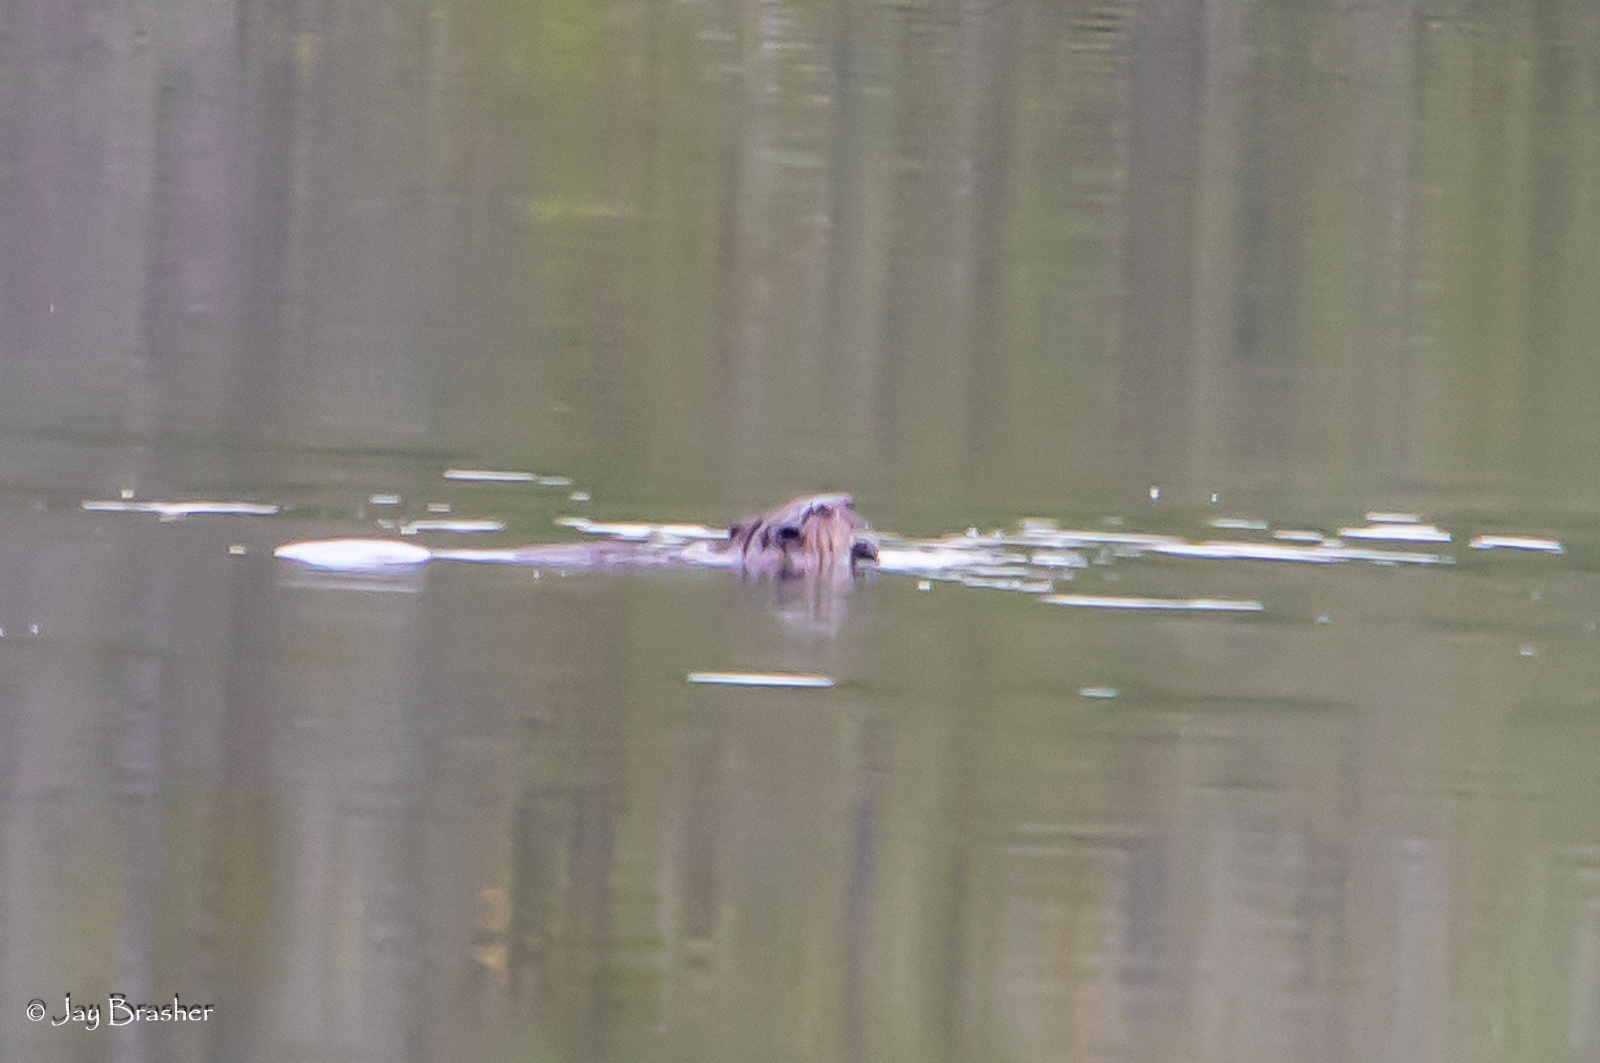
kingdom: Animalia
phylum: Chordata
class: Mammalia
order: Rodentia
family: Castoridae
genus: Castor
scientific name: Castor canadensis
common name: American beaver
